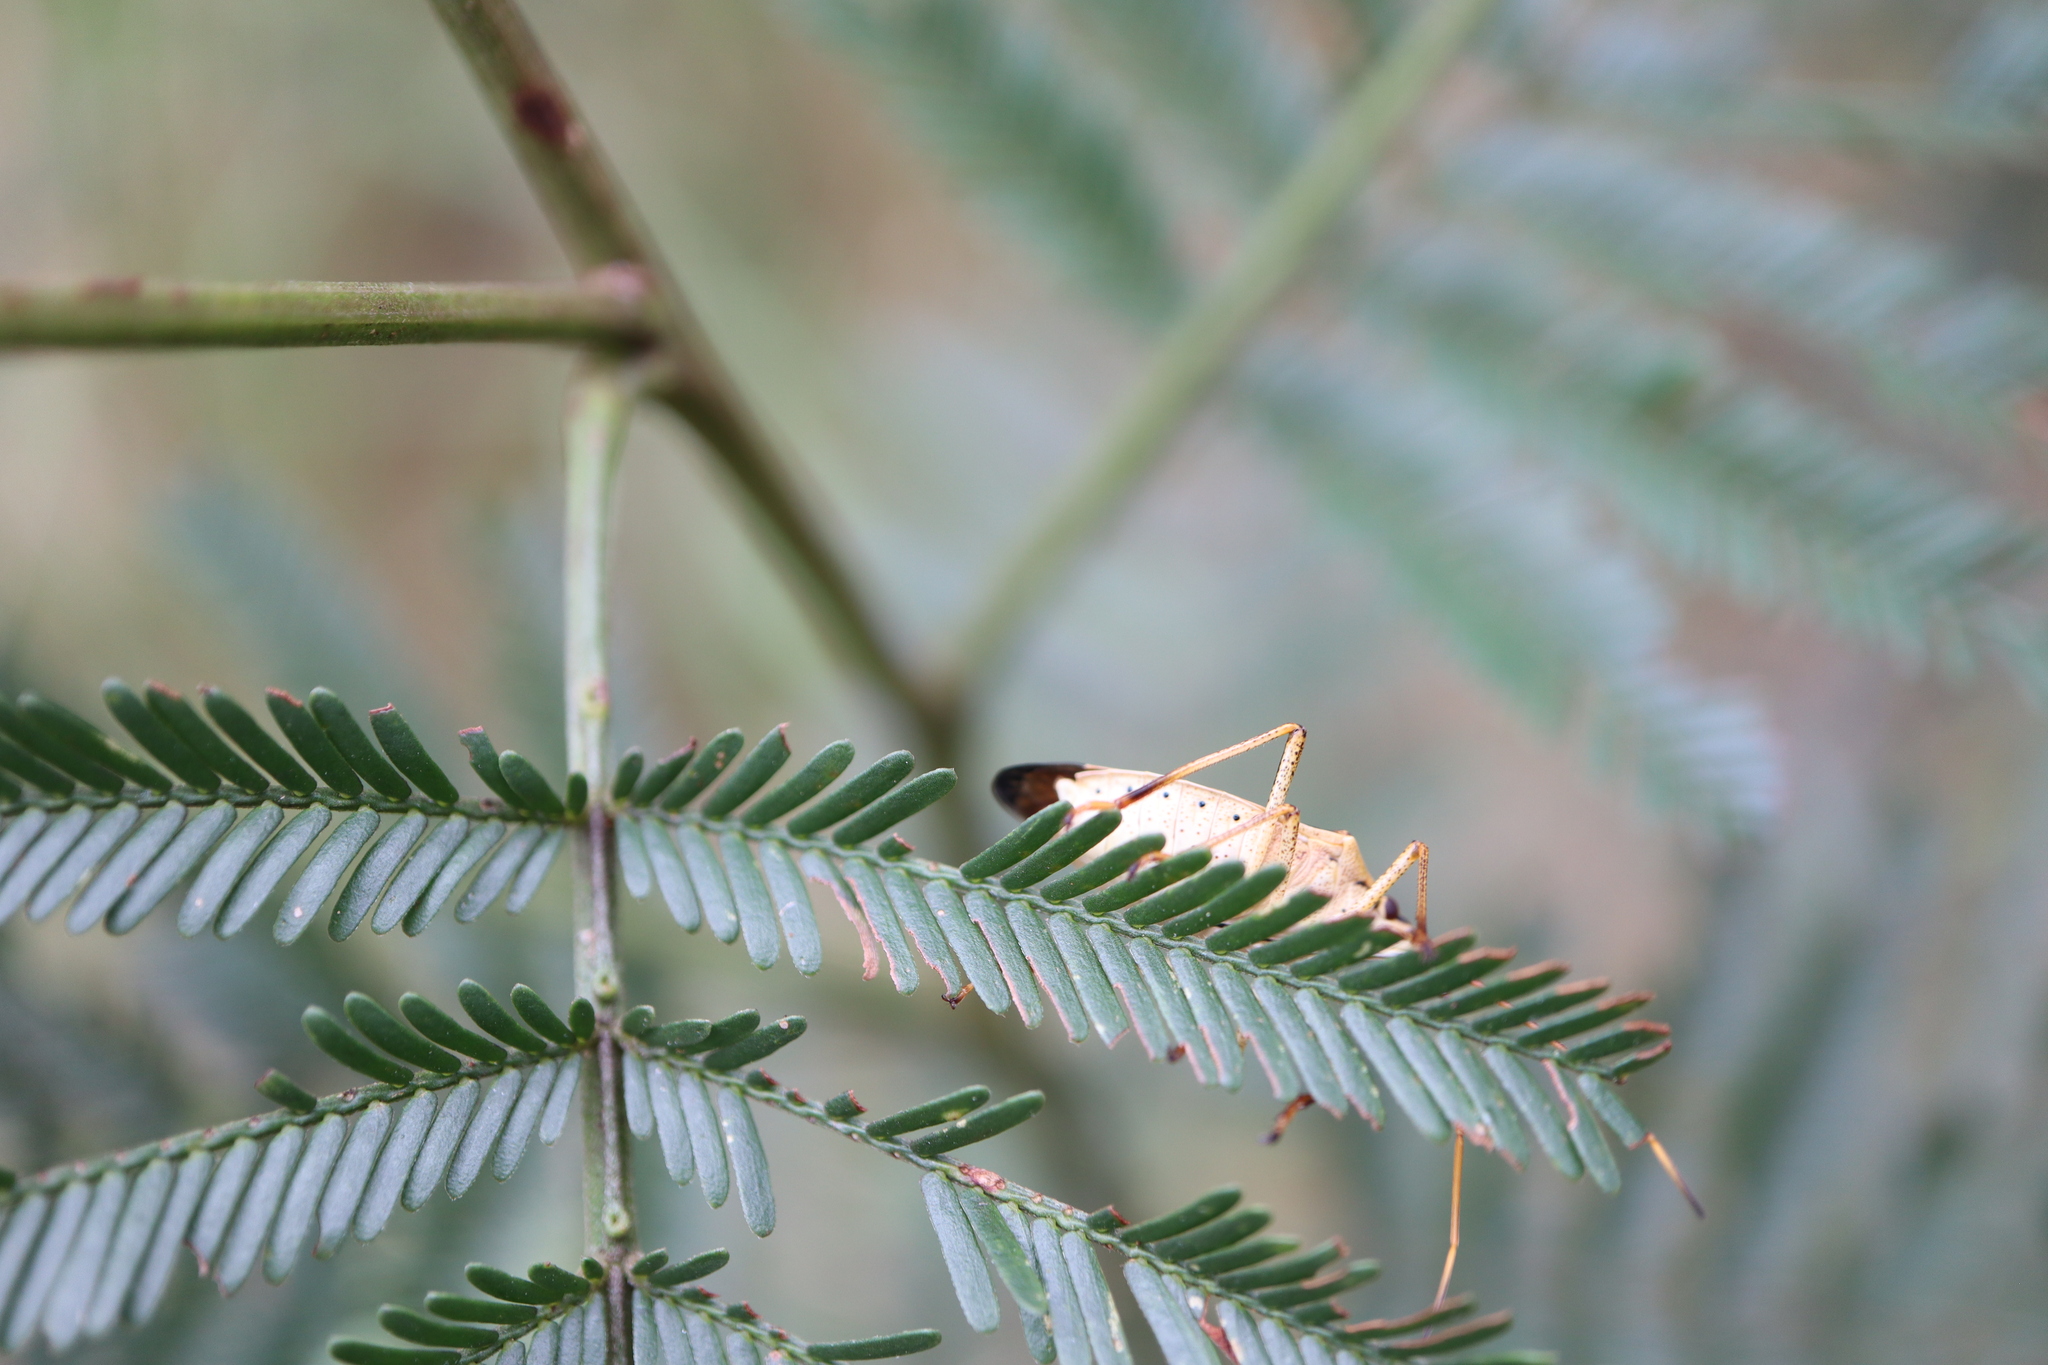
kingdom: Animalia
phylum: Arthropoda
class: Insecta
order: Hemiptera
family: Pentatomidae
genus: Poecilometis
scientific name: Poecilometis
